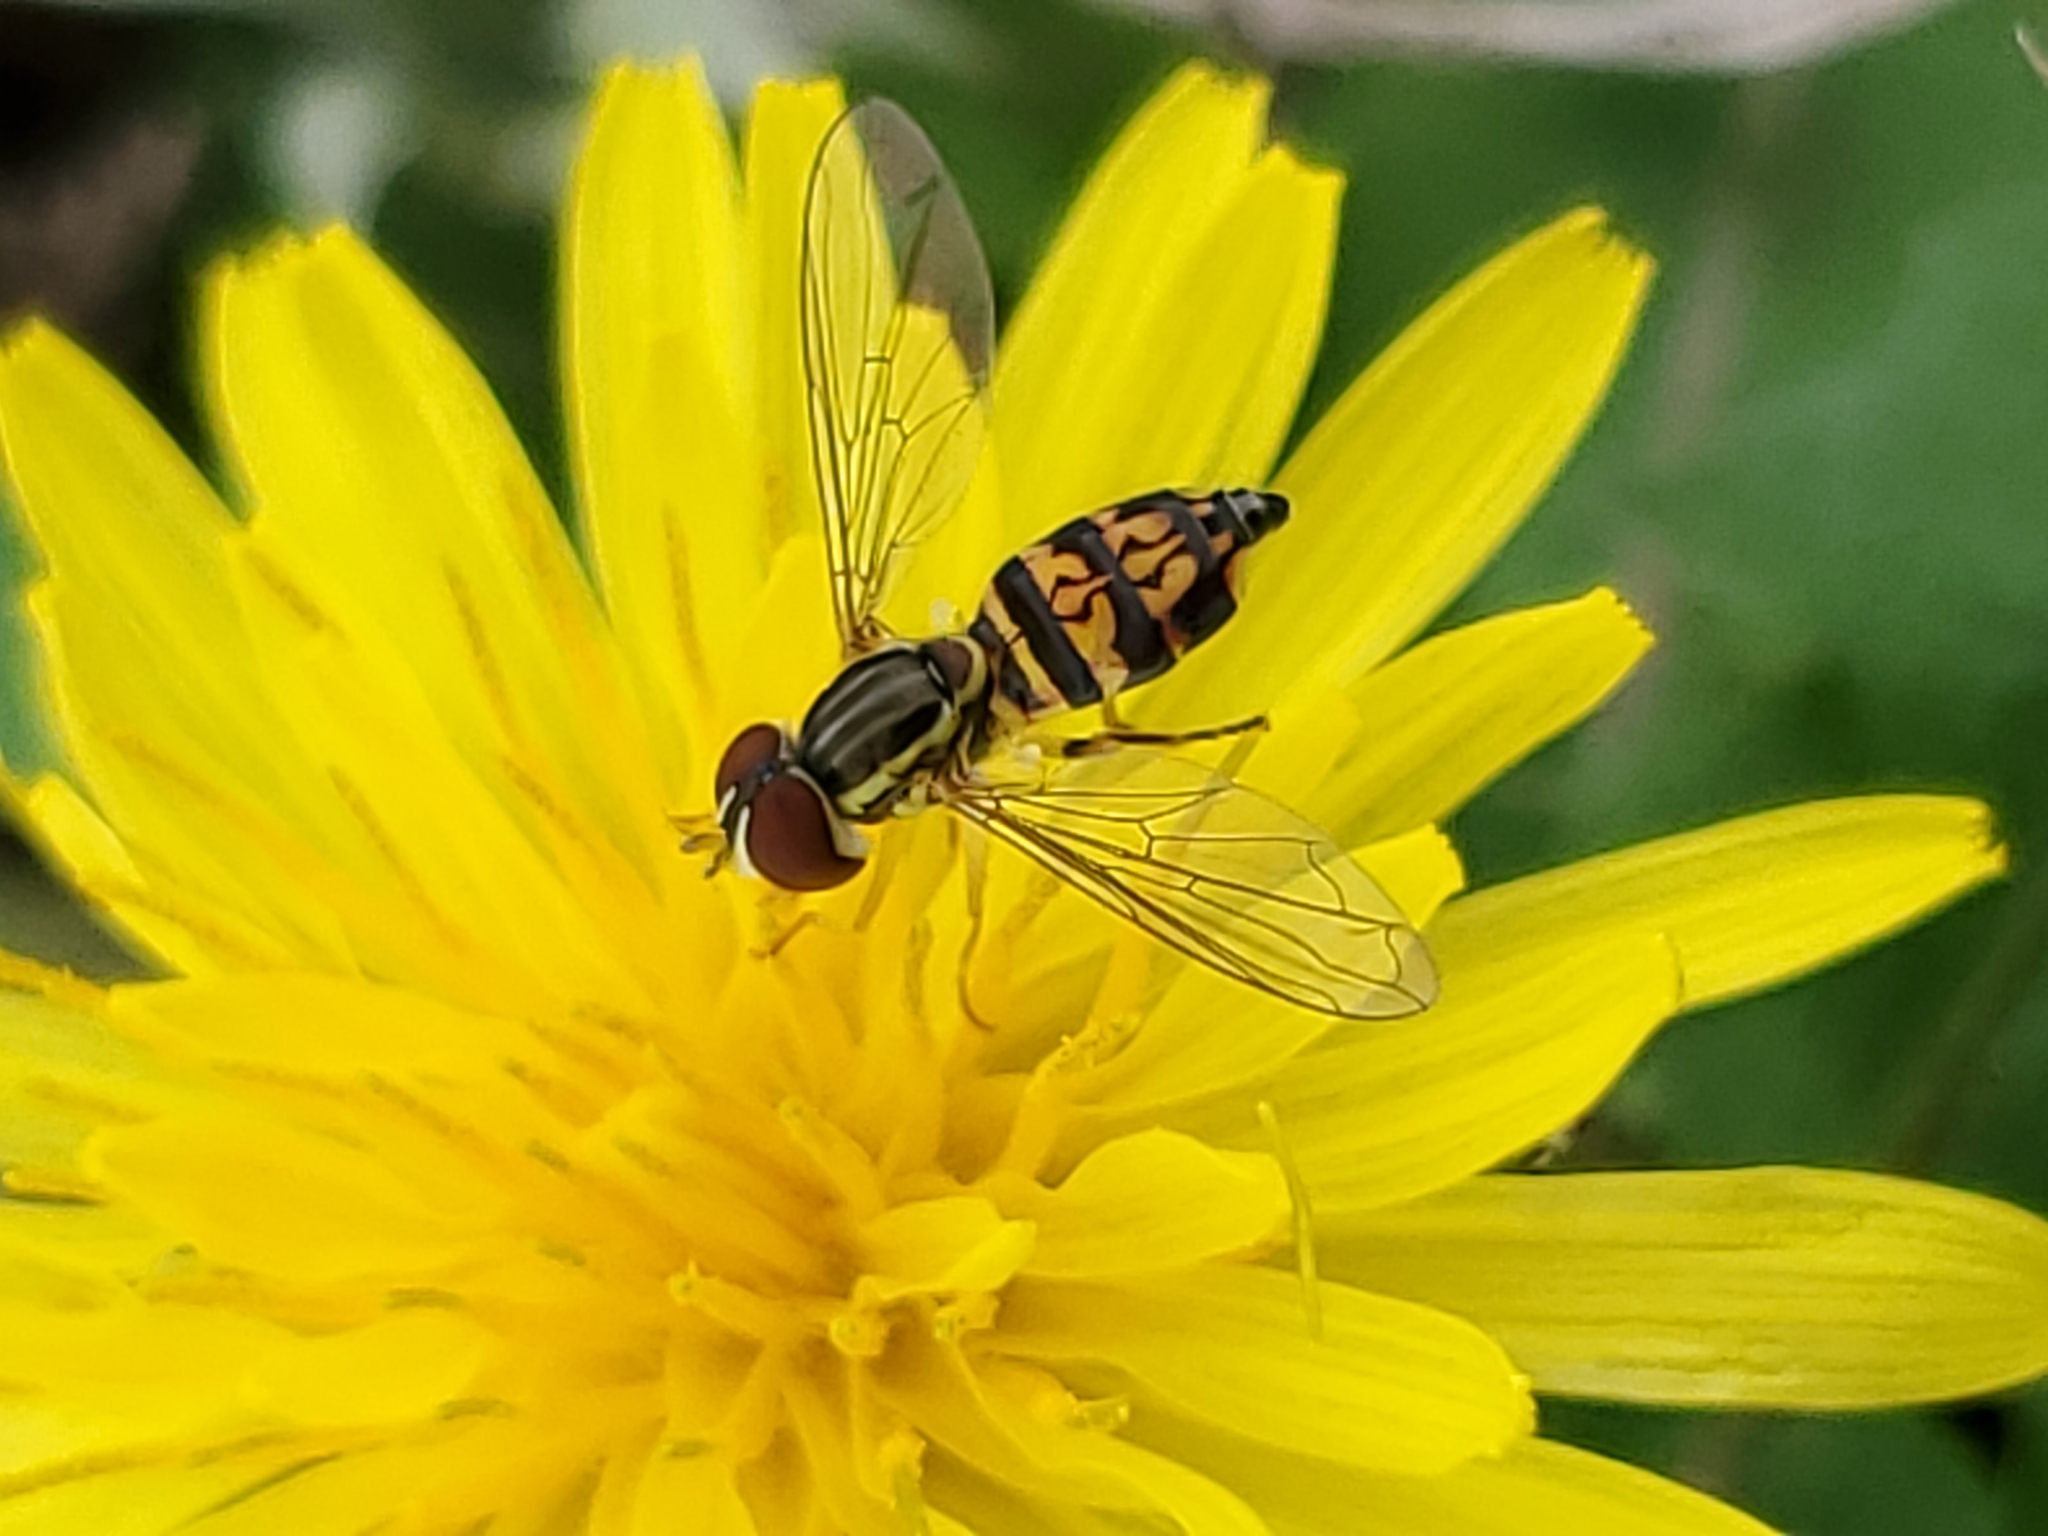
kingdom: Animalia
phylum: Arthropoda
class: Insecta
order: Diptera
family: Syrphidae
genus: Toxomerus
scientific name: Toxomerus geminatus
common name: Eastern calligrapher
